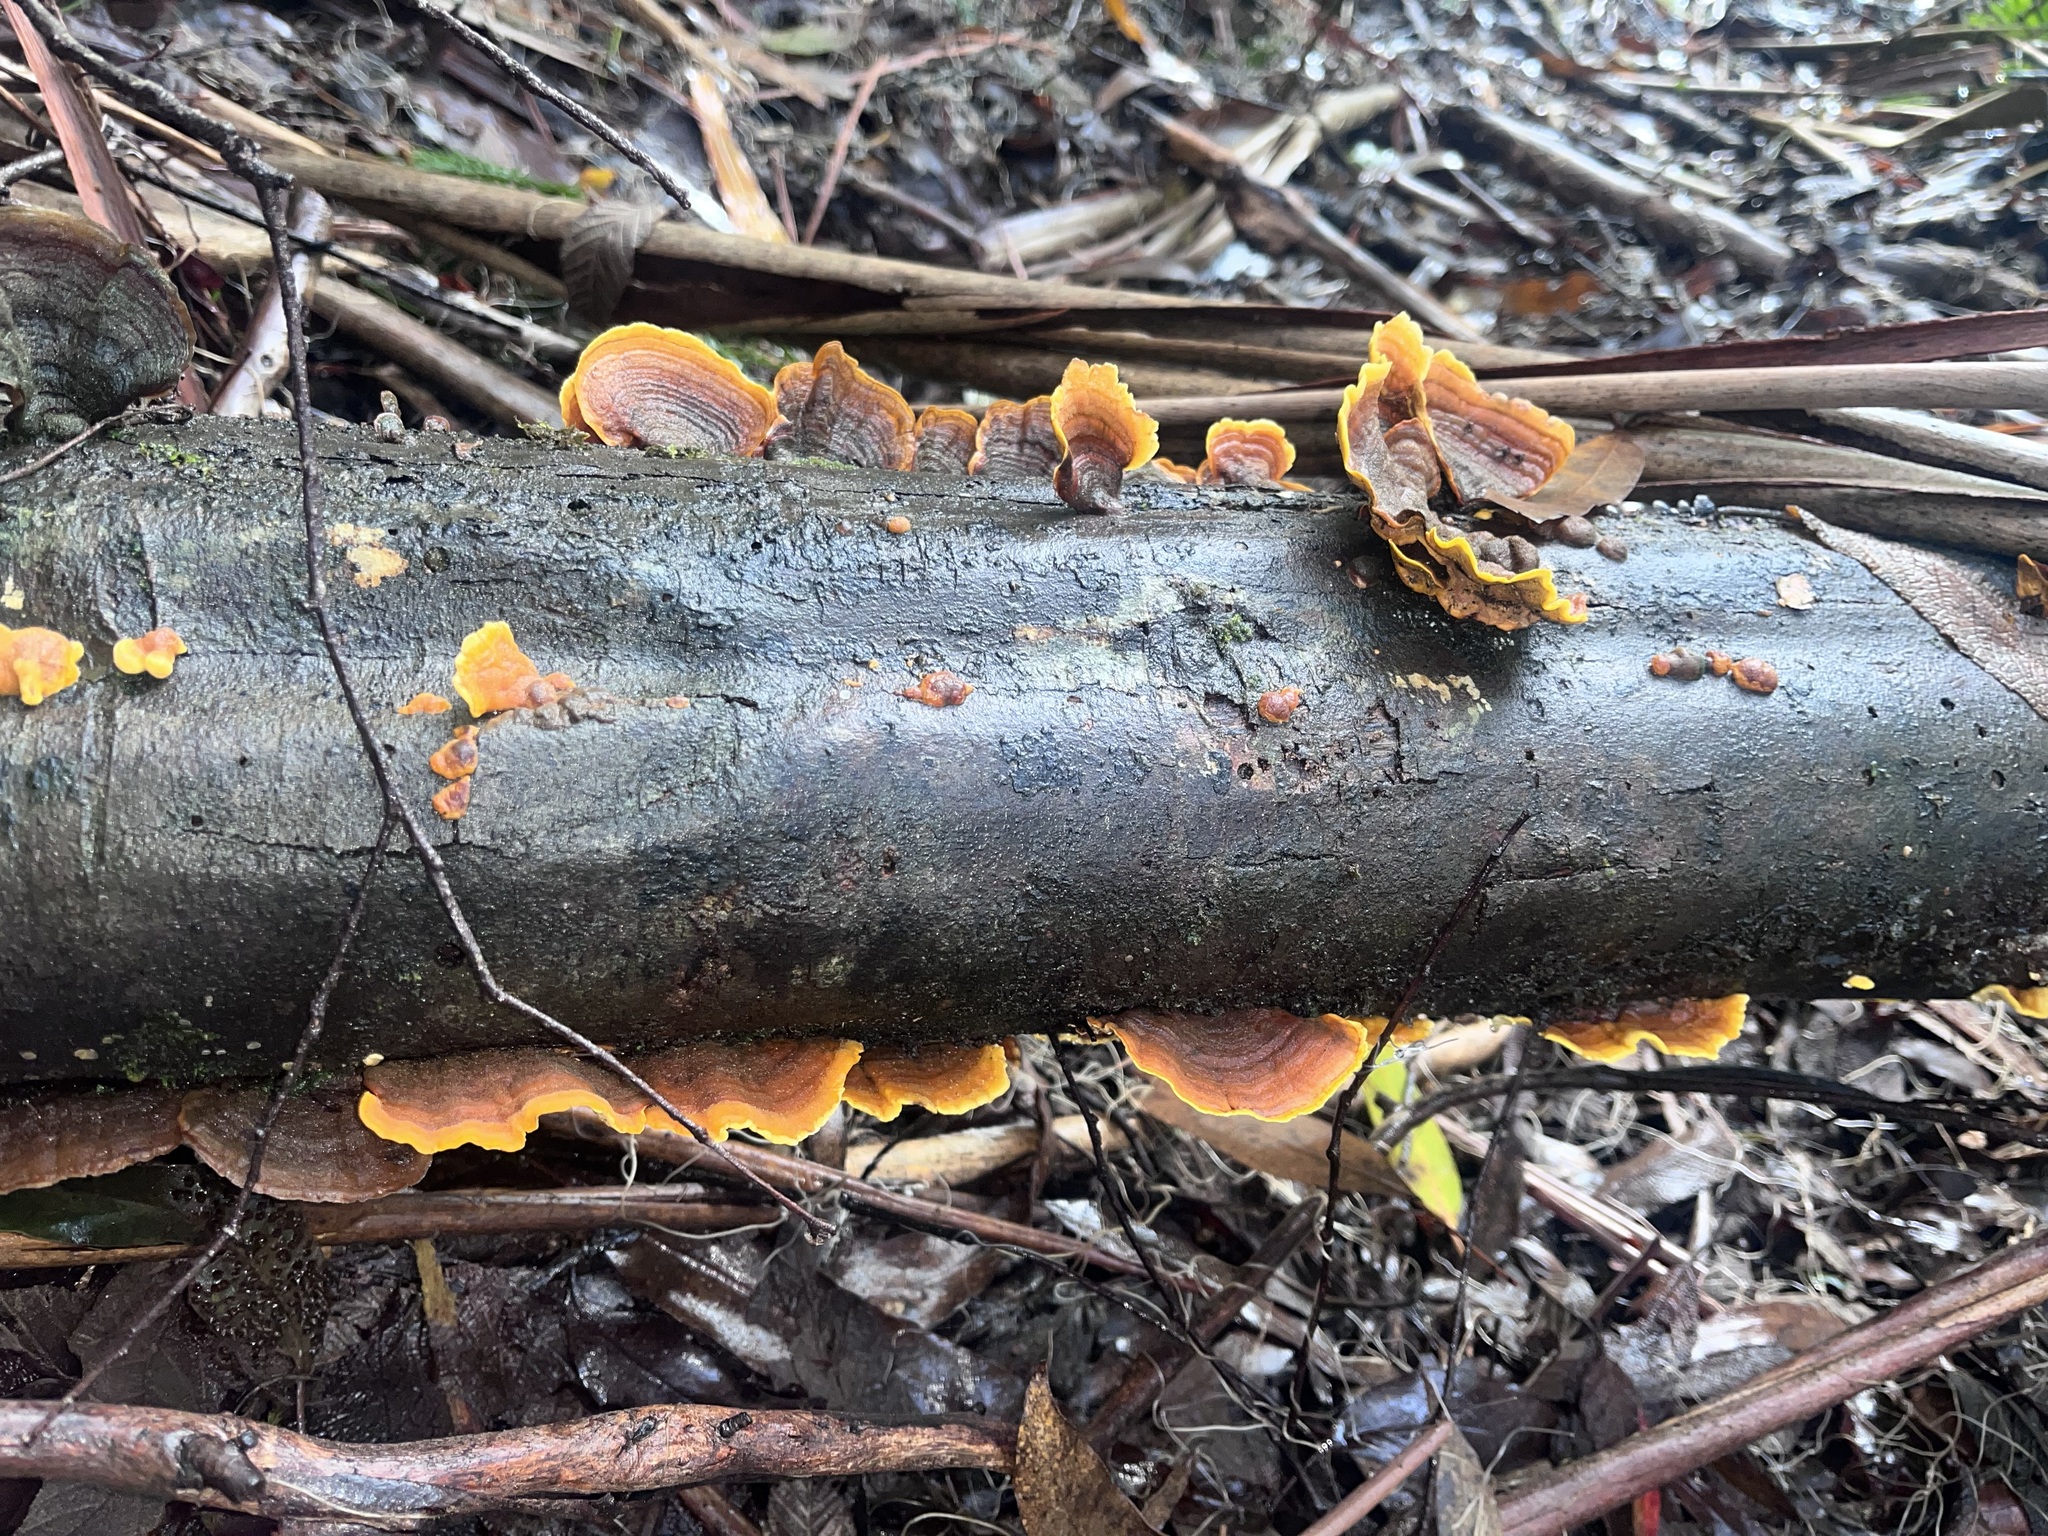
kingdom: Fungi
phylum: Basidiomycota
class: Agaricomycetes
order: Russulales
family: Stereaceae
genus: Stereum
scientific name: Stereum versicolor
